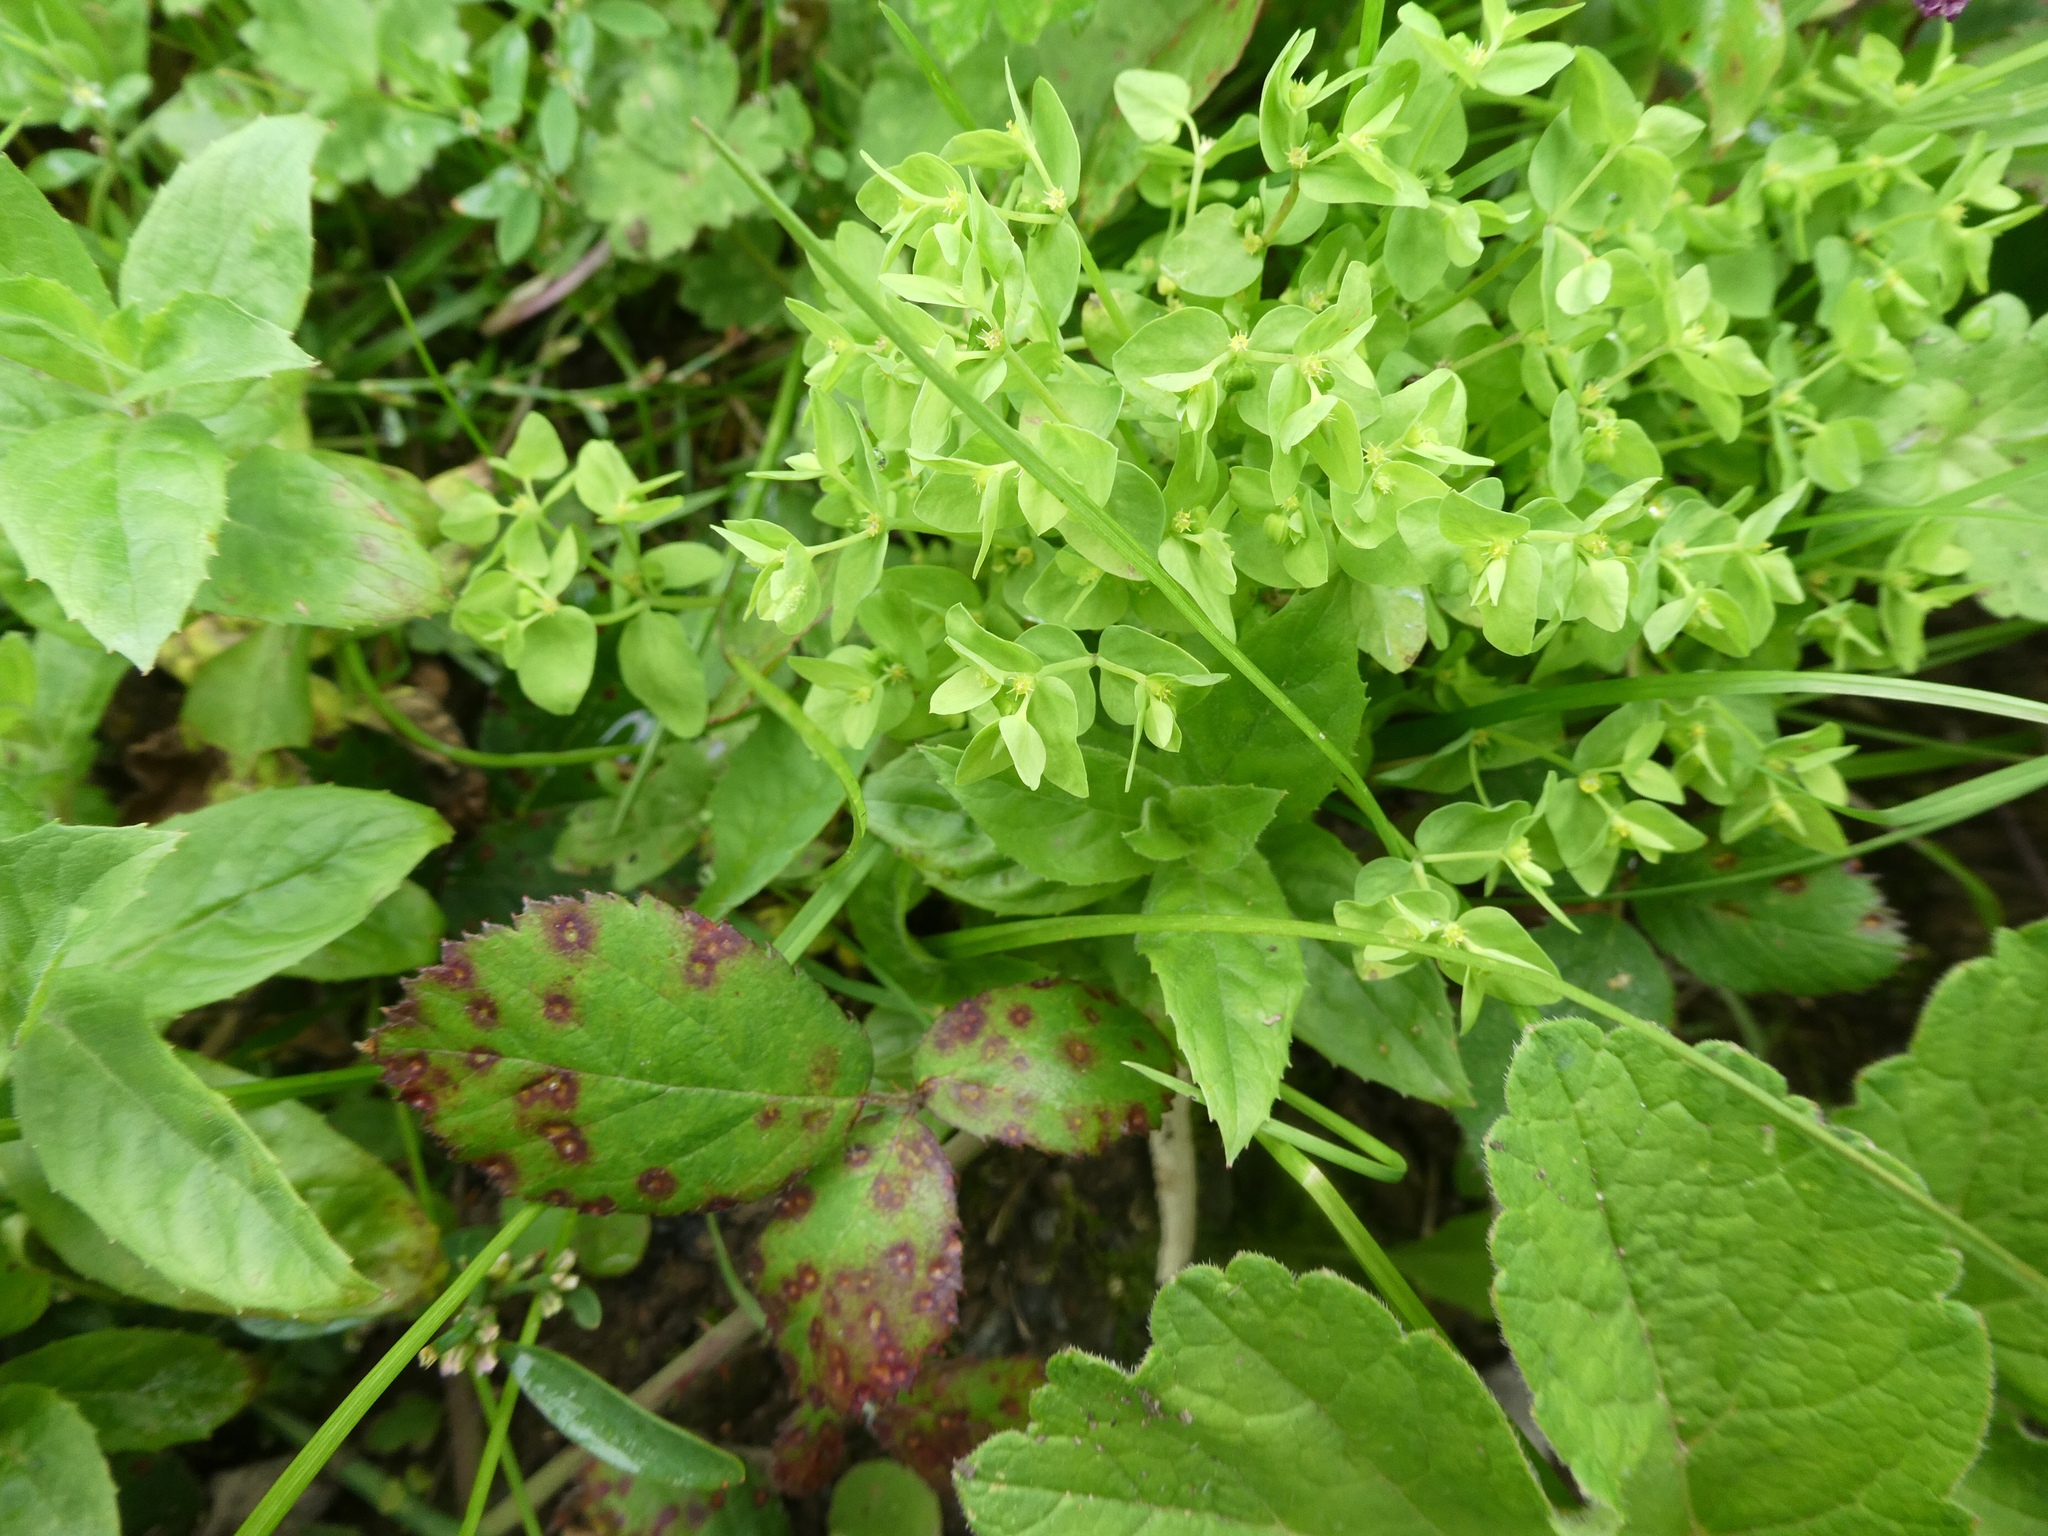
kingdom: Plantae
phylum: Tracheophyta
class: Magnoliopsida
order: Malpighiales
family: Euphorbiaceae
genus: Euphorbia
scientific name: Euphorbia peplus
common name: Petty spurge
